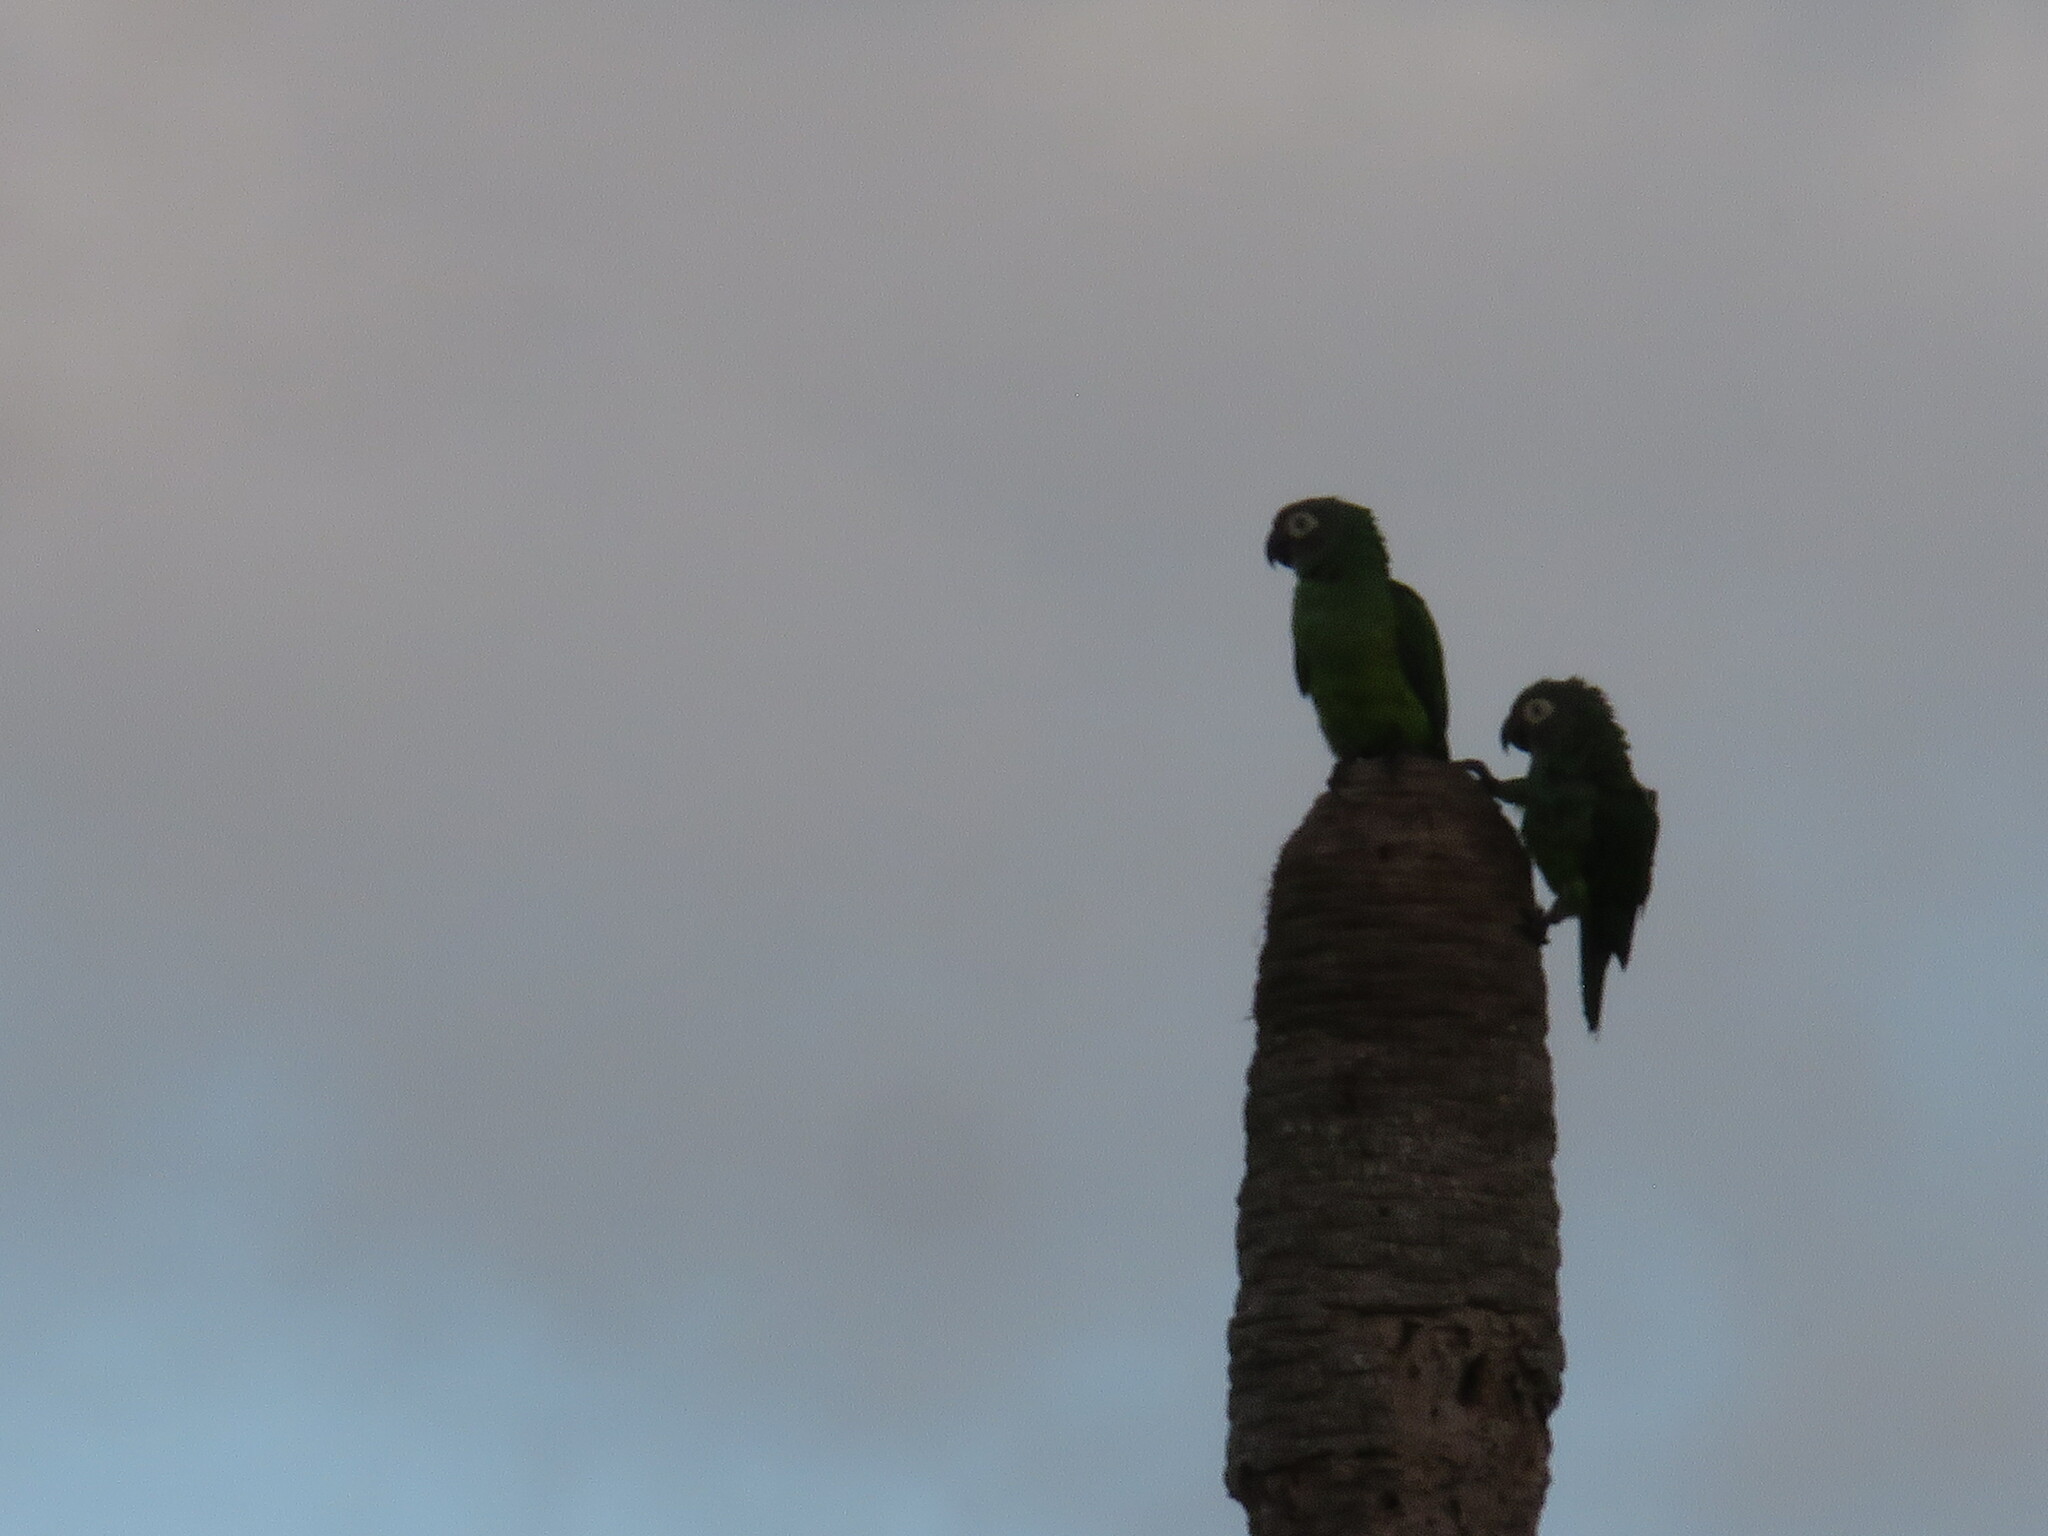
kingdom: Animalia
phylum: Chordata
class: Aves
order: Psittaciformes
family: Psittacidae
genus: Aratinga
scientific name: Aratinga weddellii
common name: Dusky-headed parakeet
